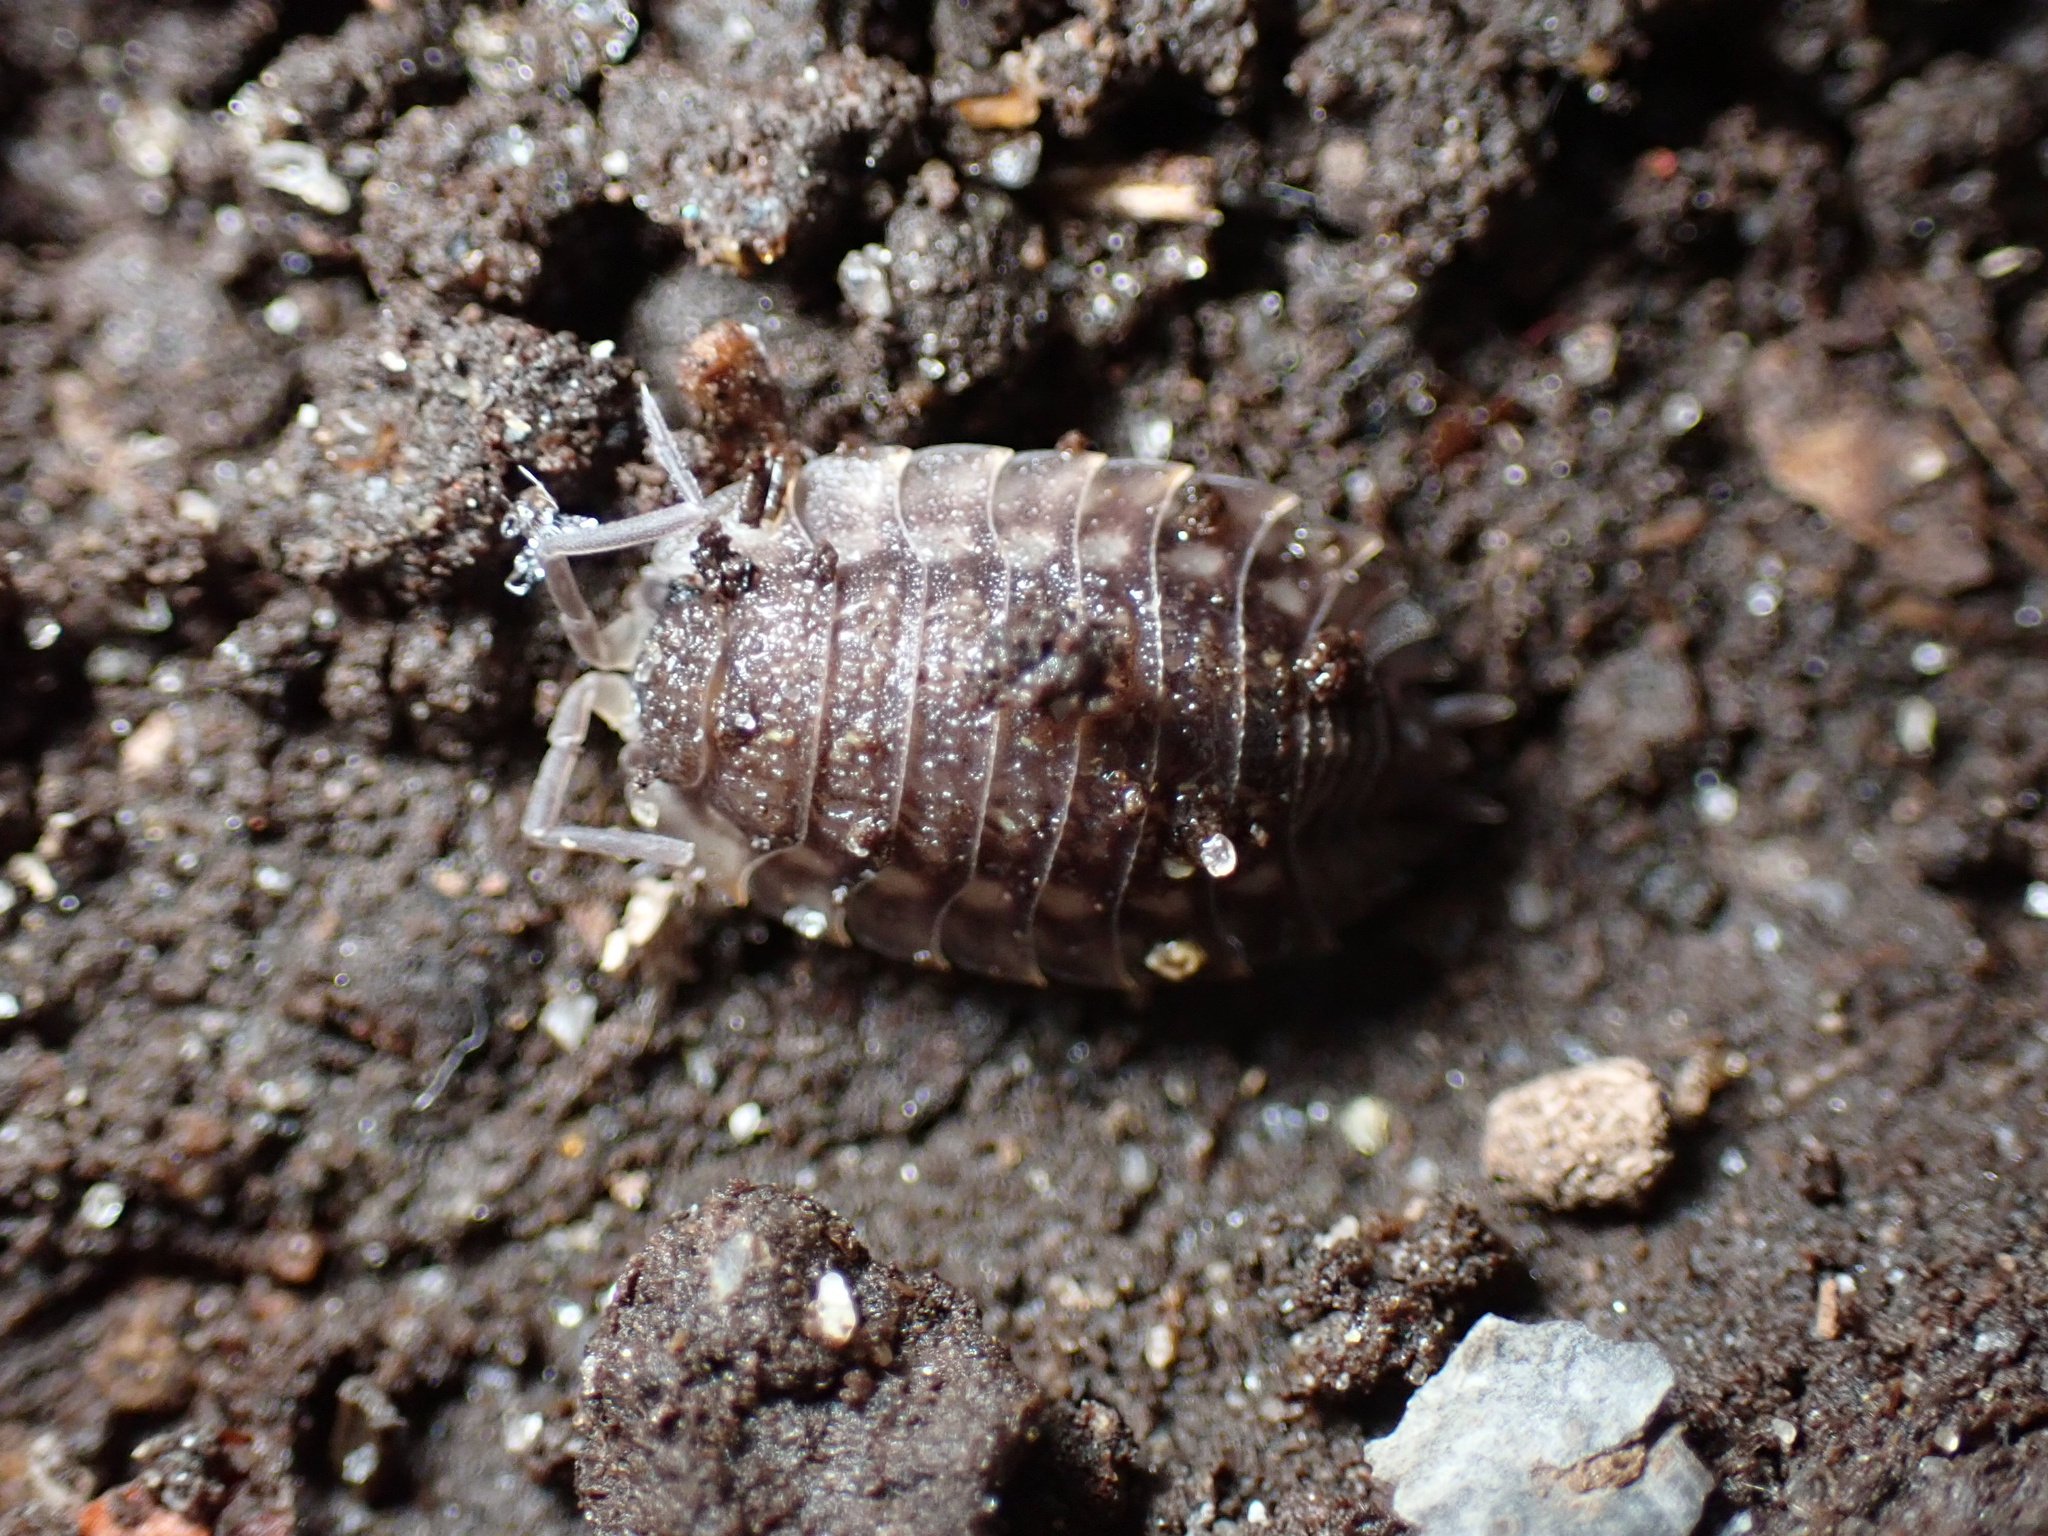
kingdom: Animalia
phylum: Arthropoda
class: Malacostraca
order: Isopoda
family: Oniscidae
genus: Oniscus
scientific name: Oniscus asellus
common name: Common shiny woodlouse
